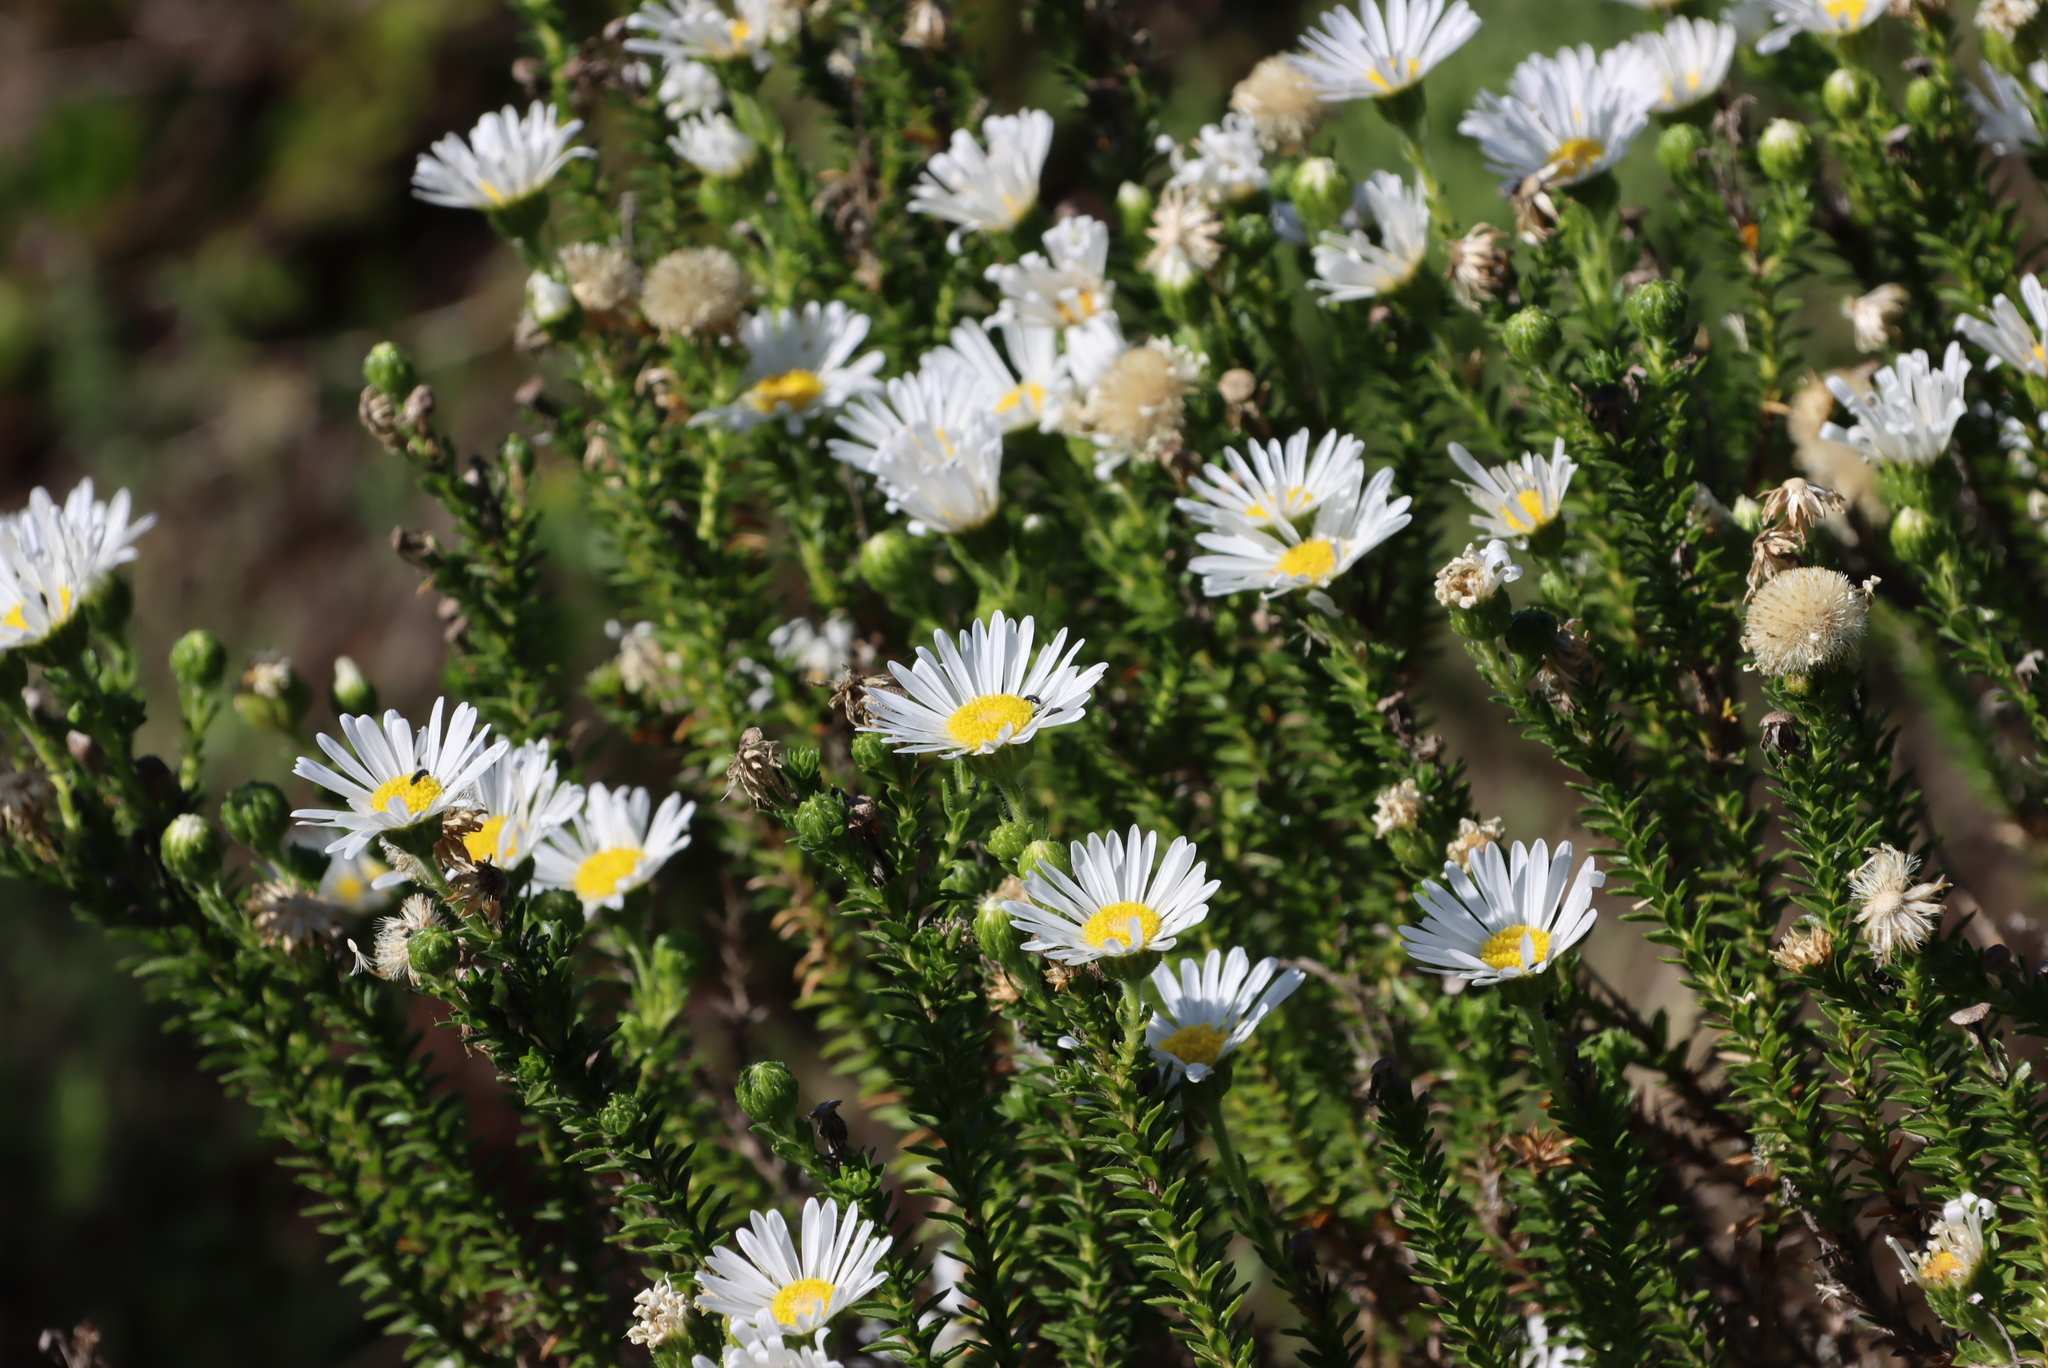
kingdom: Plantae
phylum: Tracheophyta
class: Magnoliopsida
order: Asterales
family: Asteraceae
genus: Felicia
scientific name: Felicia echinata
